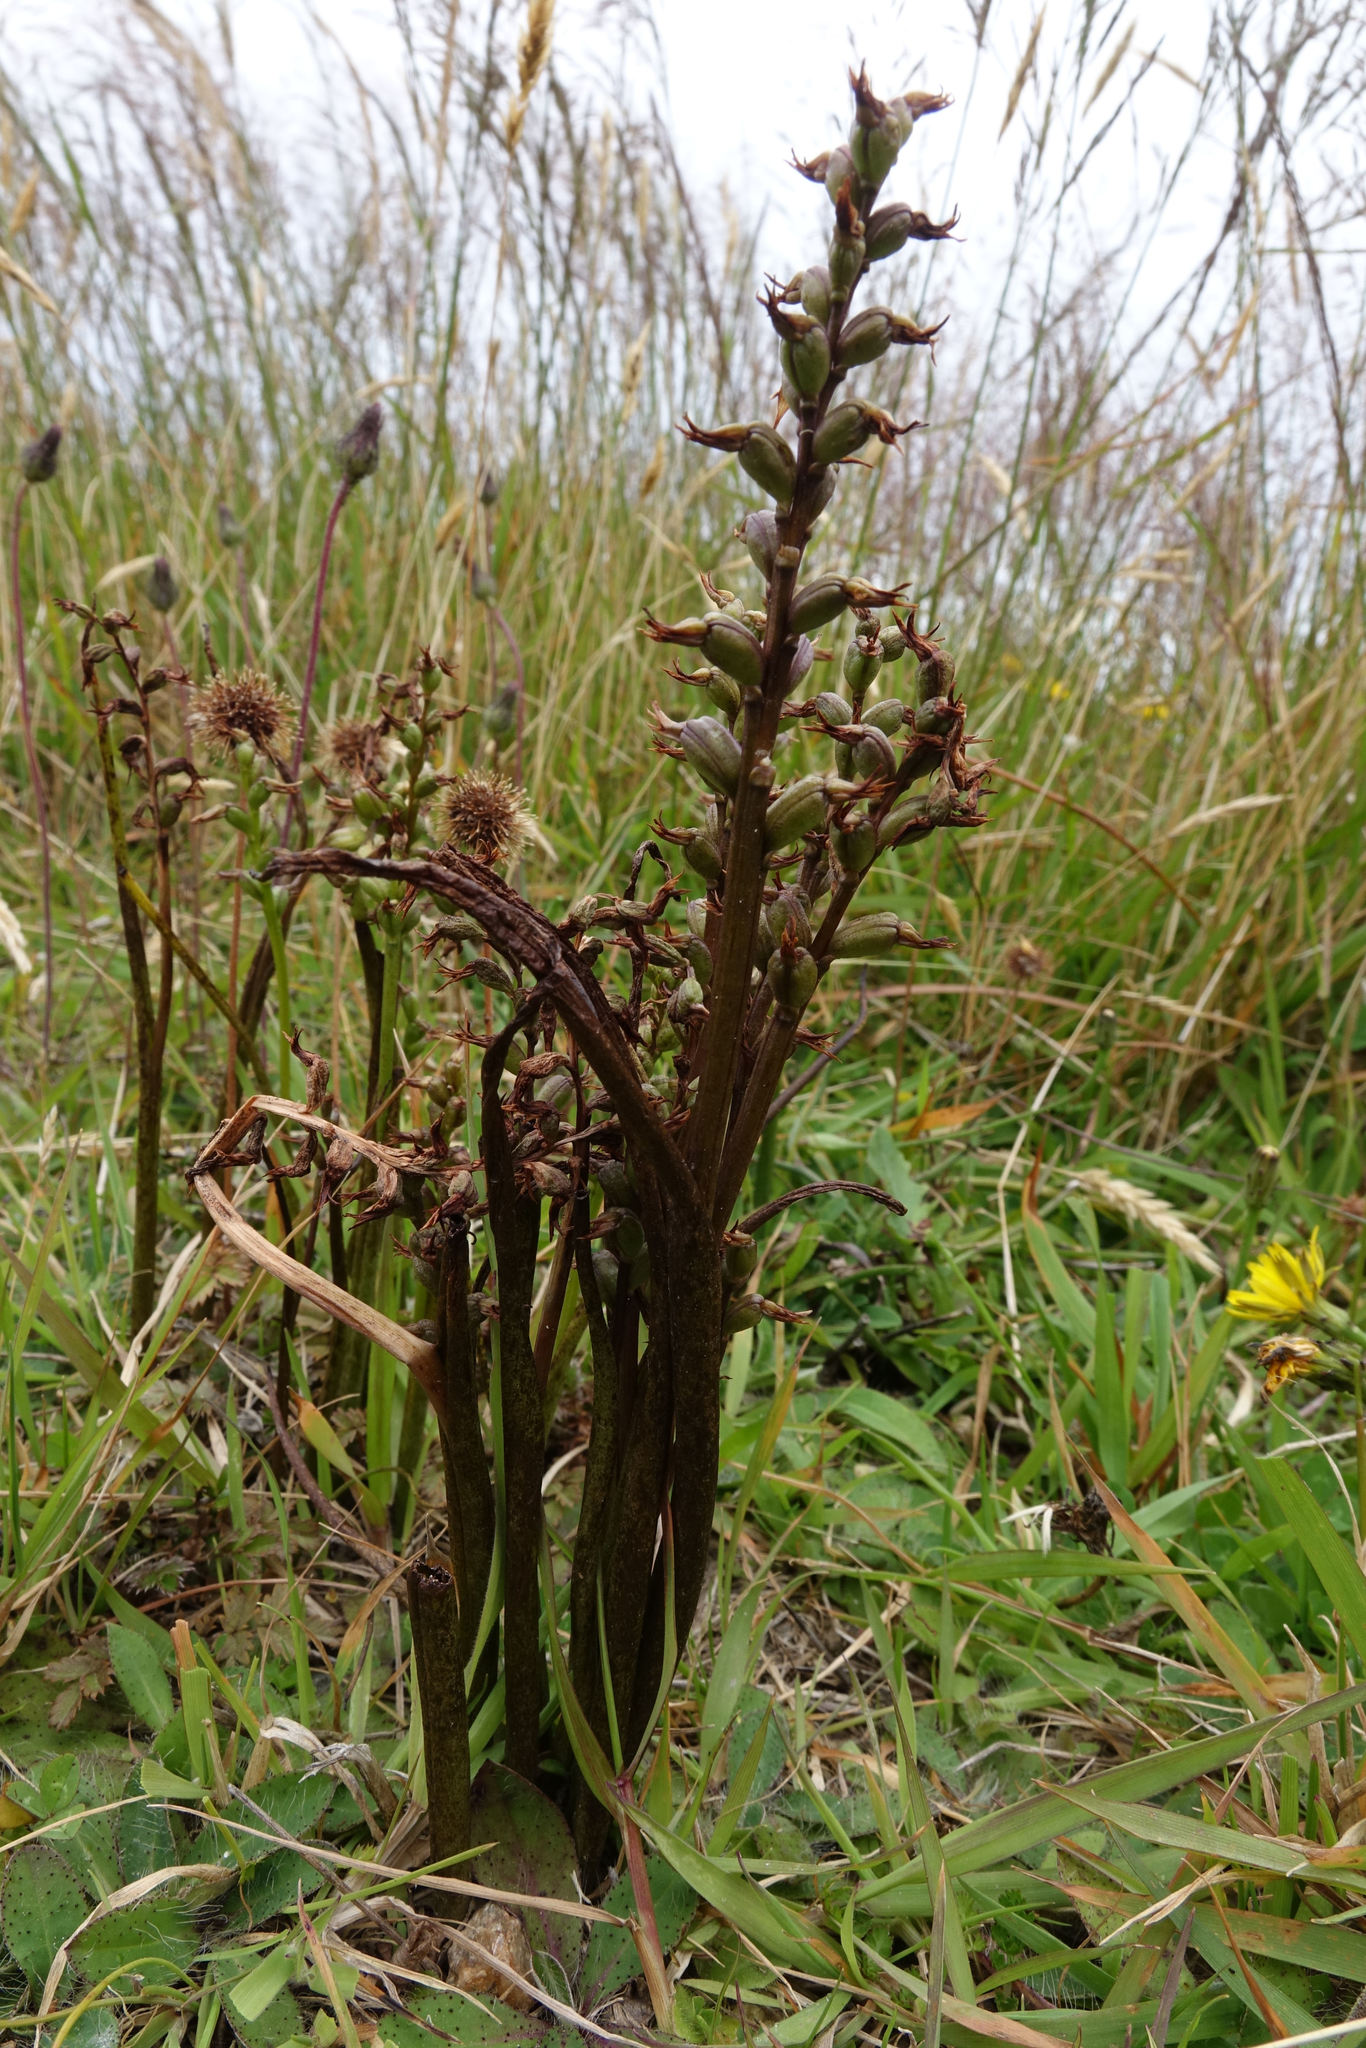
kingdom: Plantae
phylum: Tracheophyta
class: Liliopsida
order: Asparagales
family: Orchidaceae
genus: Prasophyllum
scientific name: Prasophyllum colensoi
